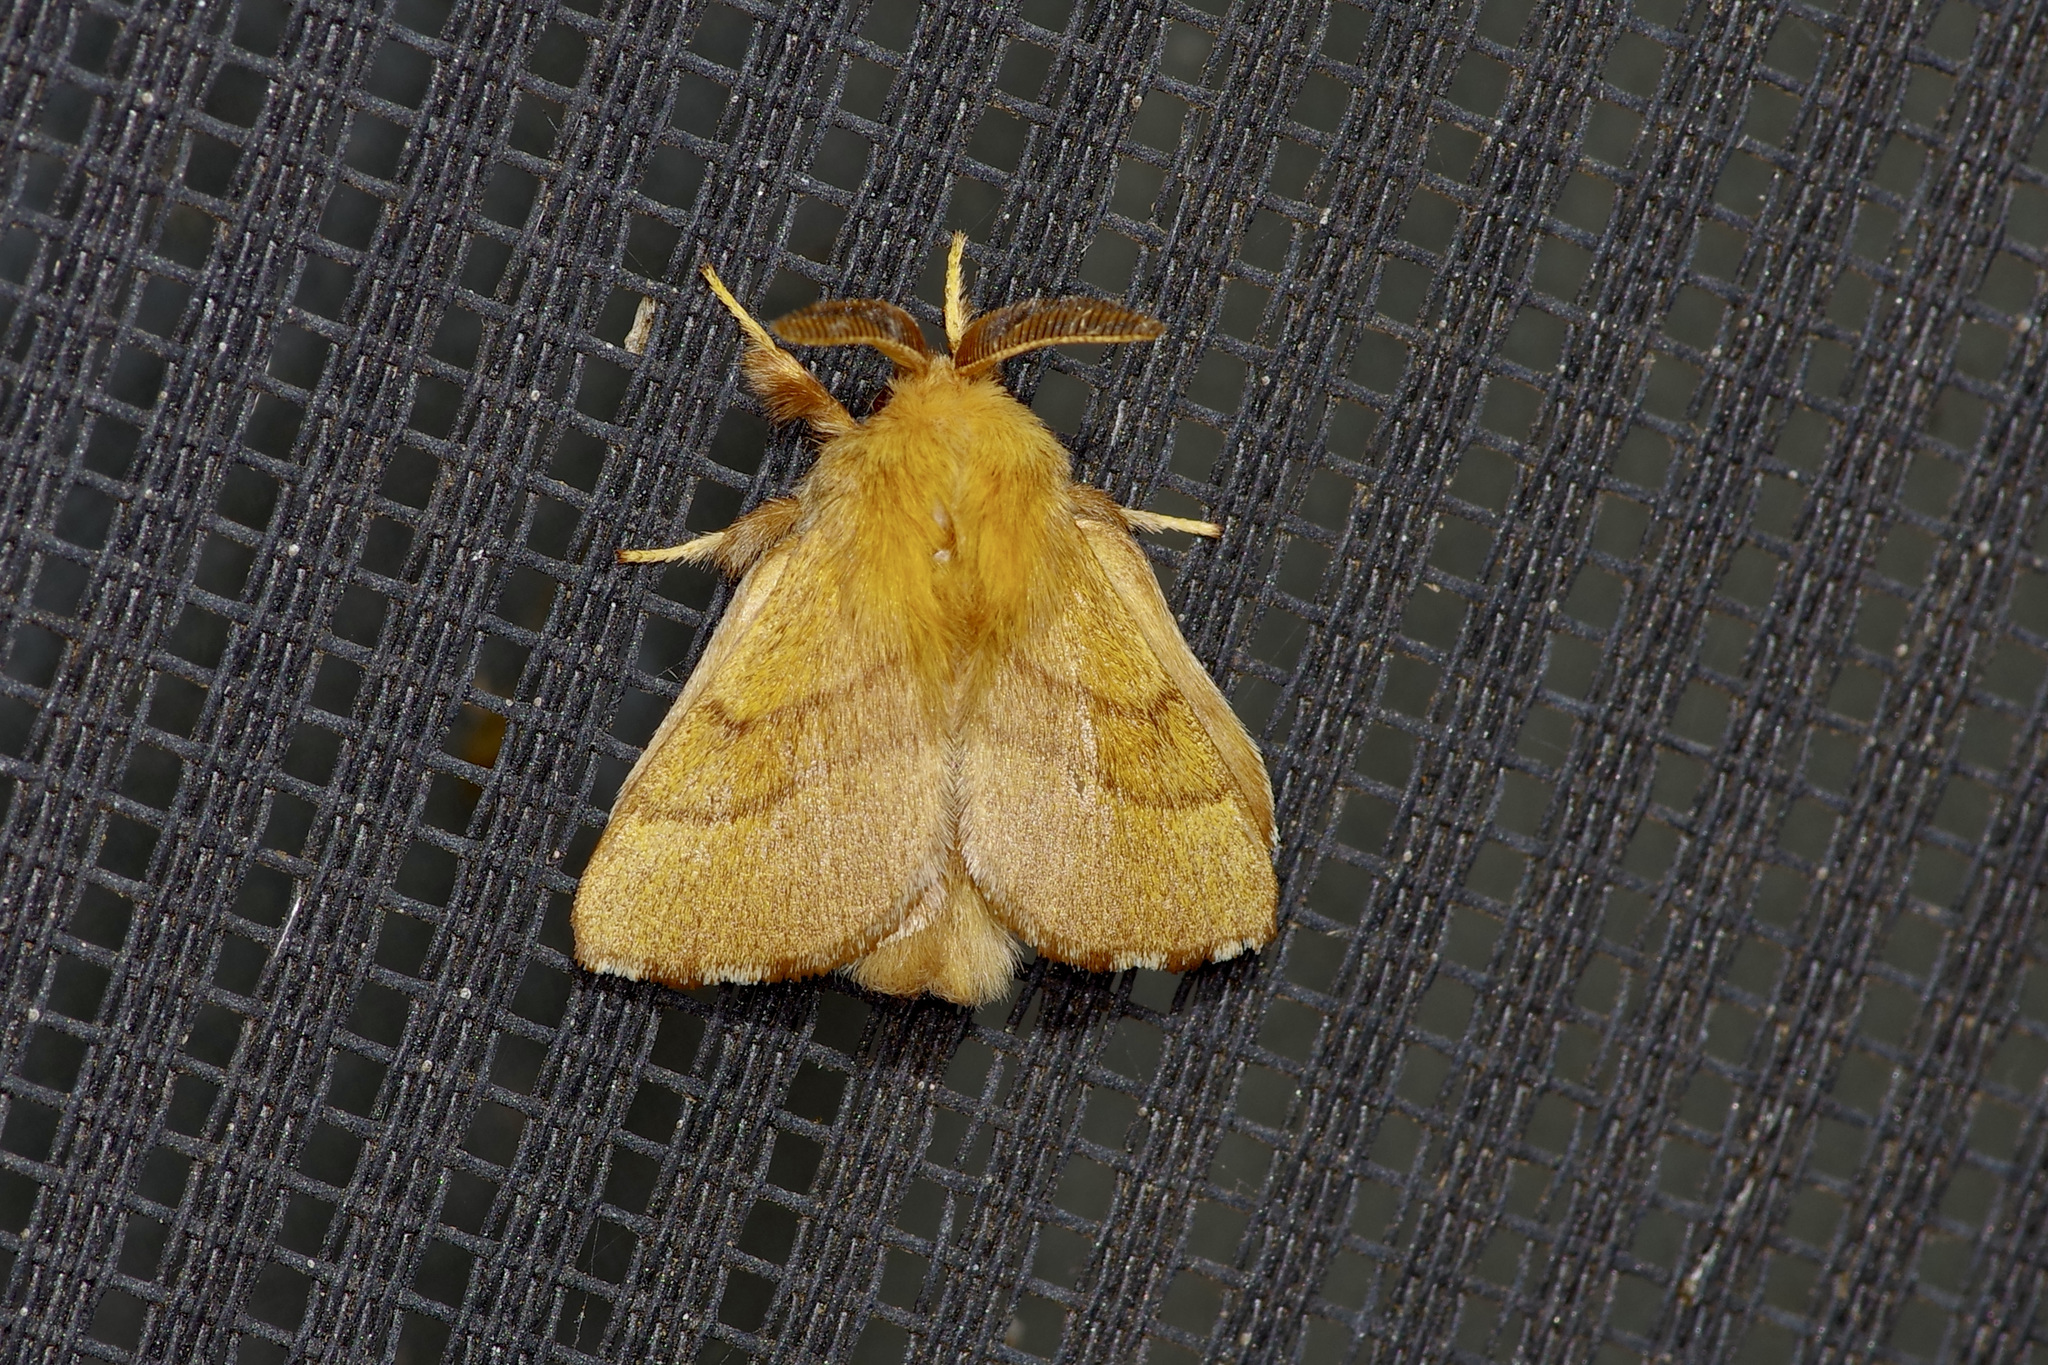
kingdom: Animalia
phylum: Arthropoda
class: Insecta
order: Lepidoptera
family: Lasiocampidae
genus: Malacosoma
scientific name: Malacosoma disstria
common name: Forest tent caterpillar
